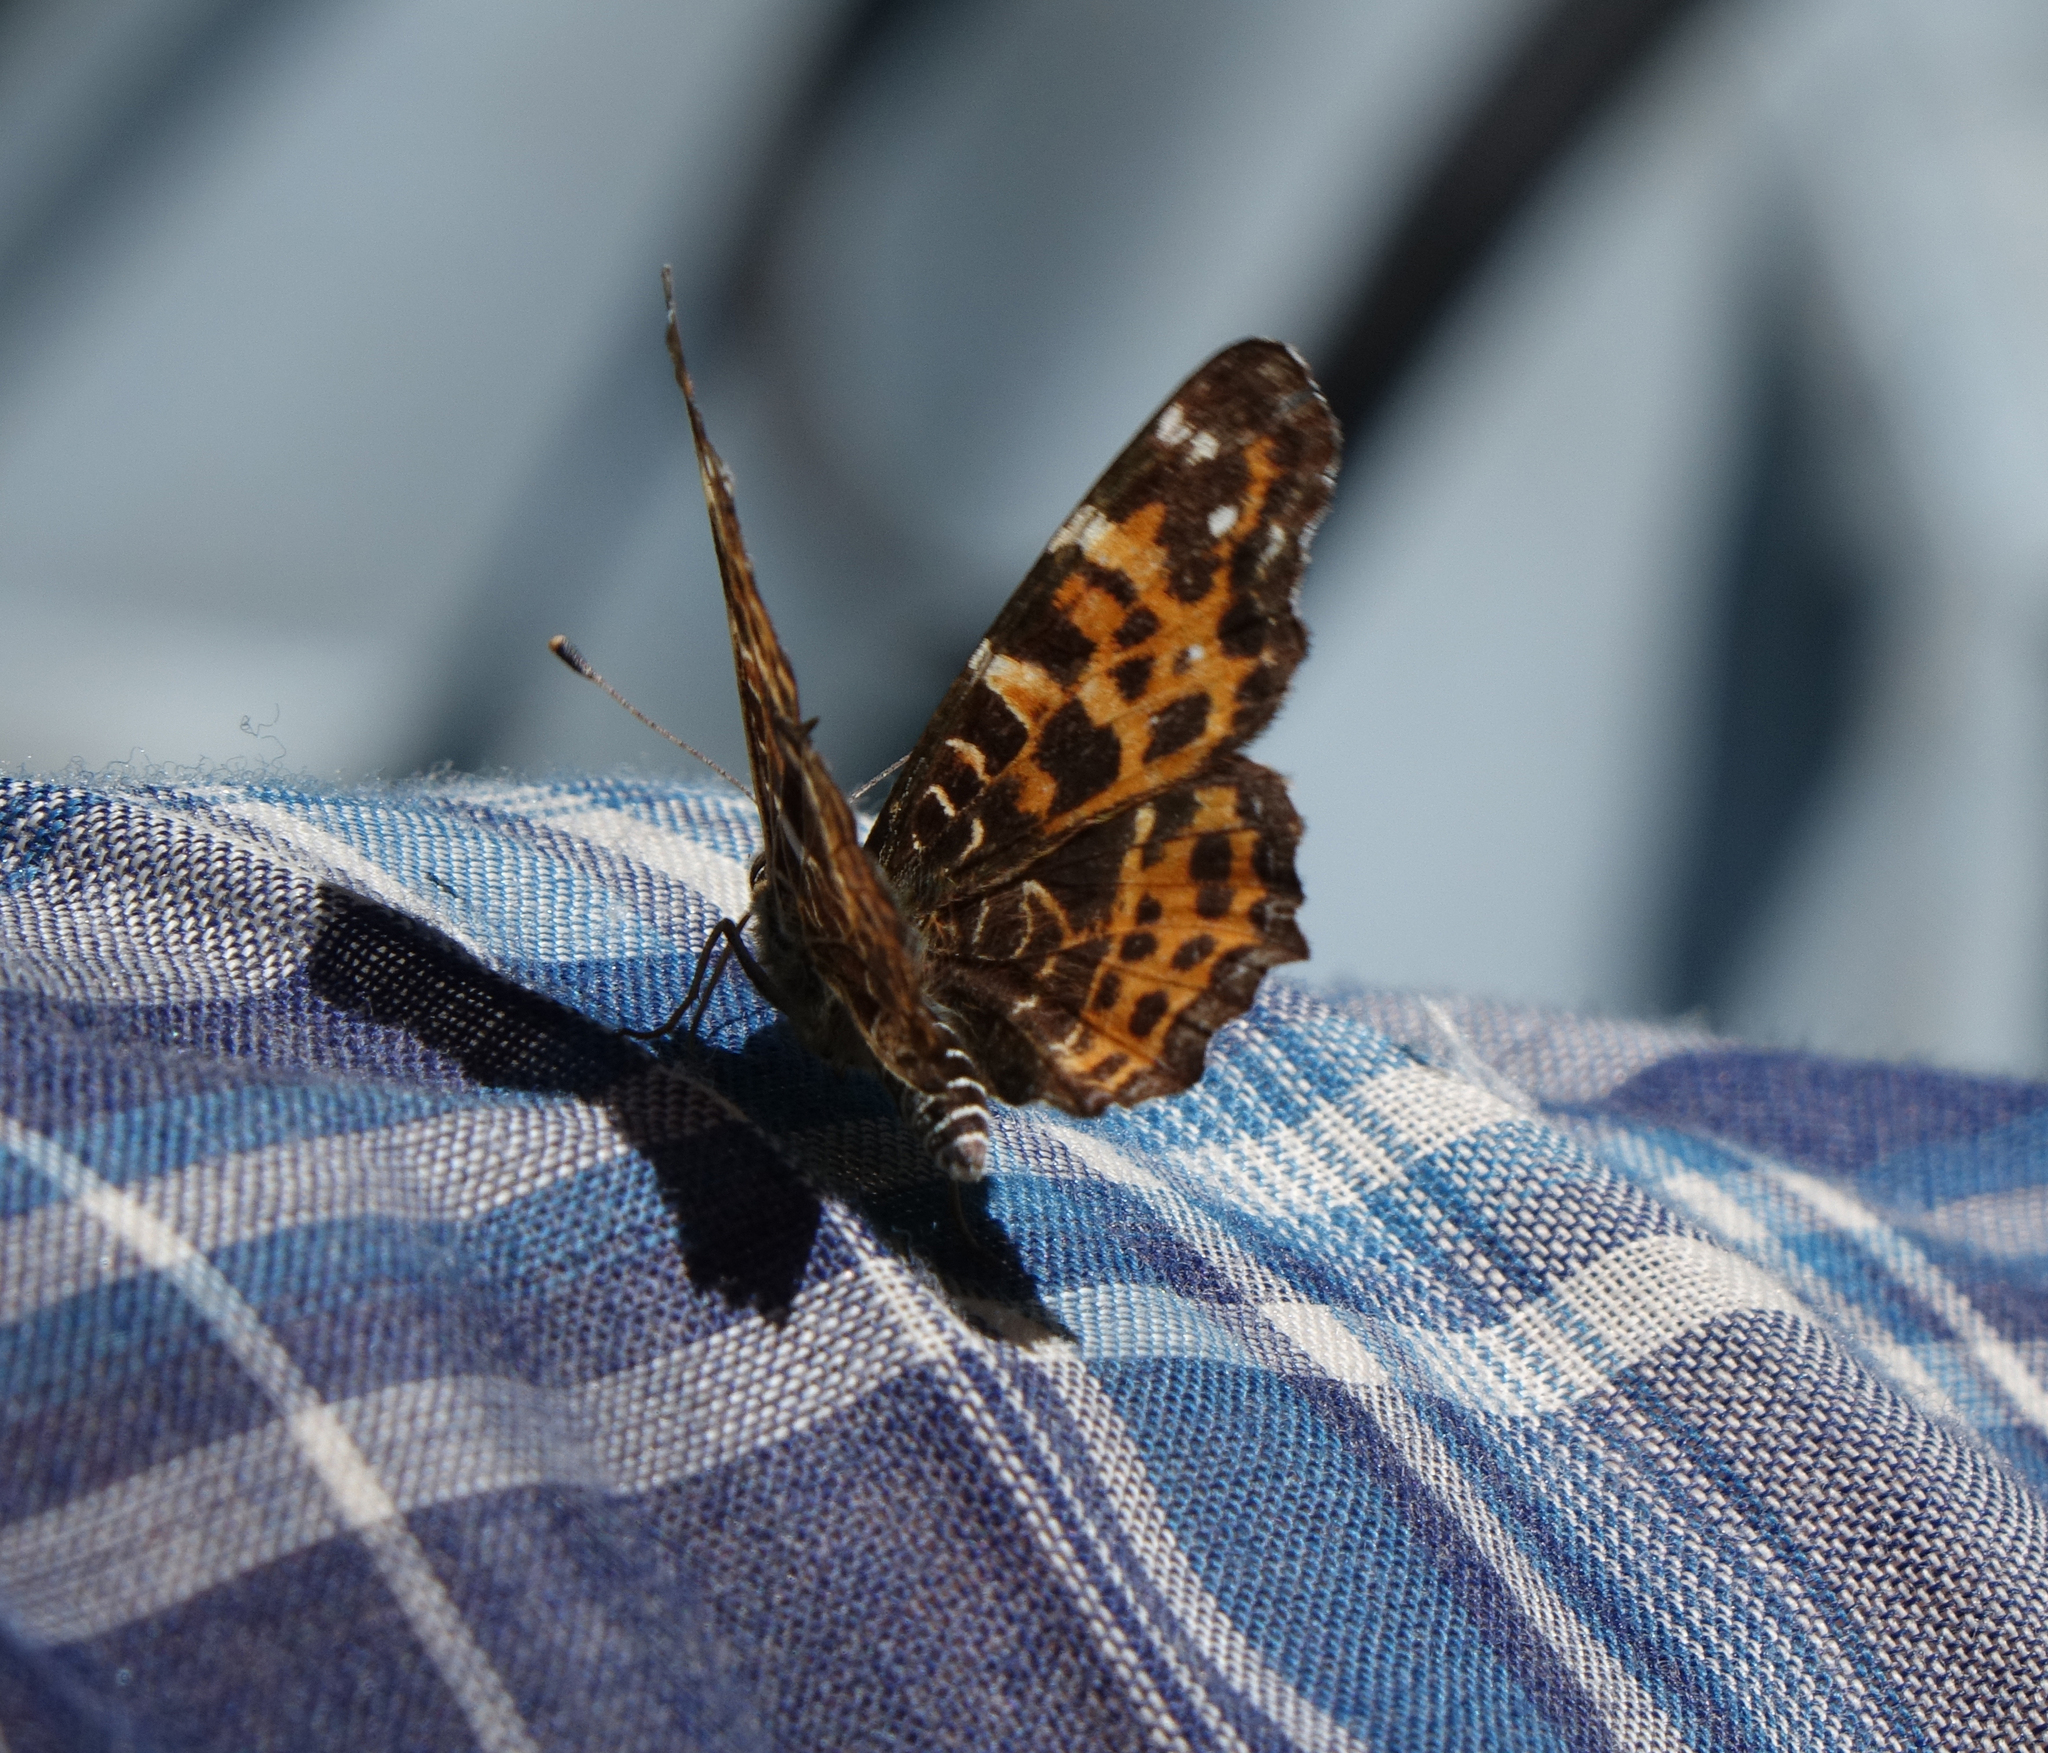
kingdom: Animalia
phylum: Arthropoda
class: Insecta
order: Lepidoptera
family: Nymphalidae
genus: Araschnia
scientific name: Araschnia levana
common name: Map butterfly
